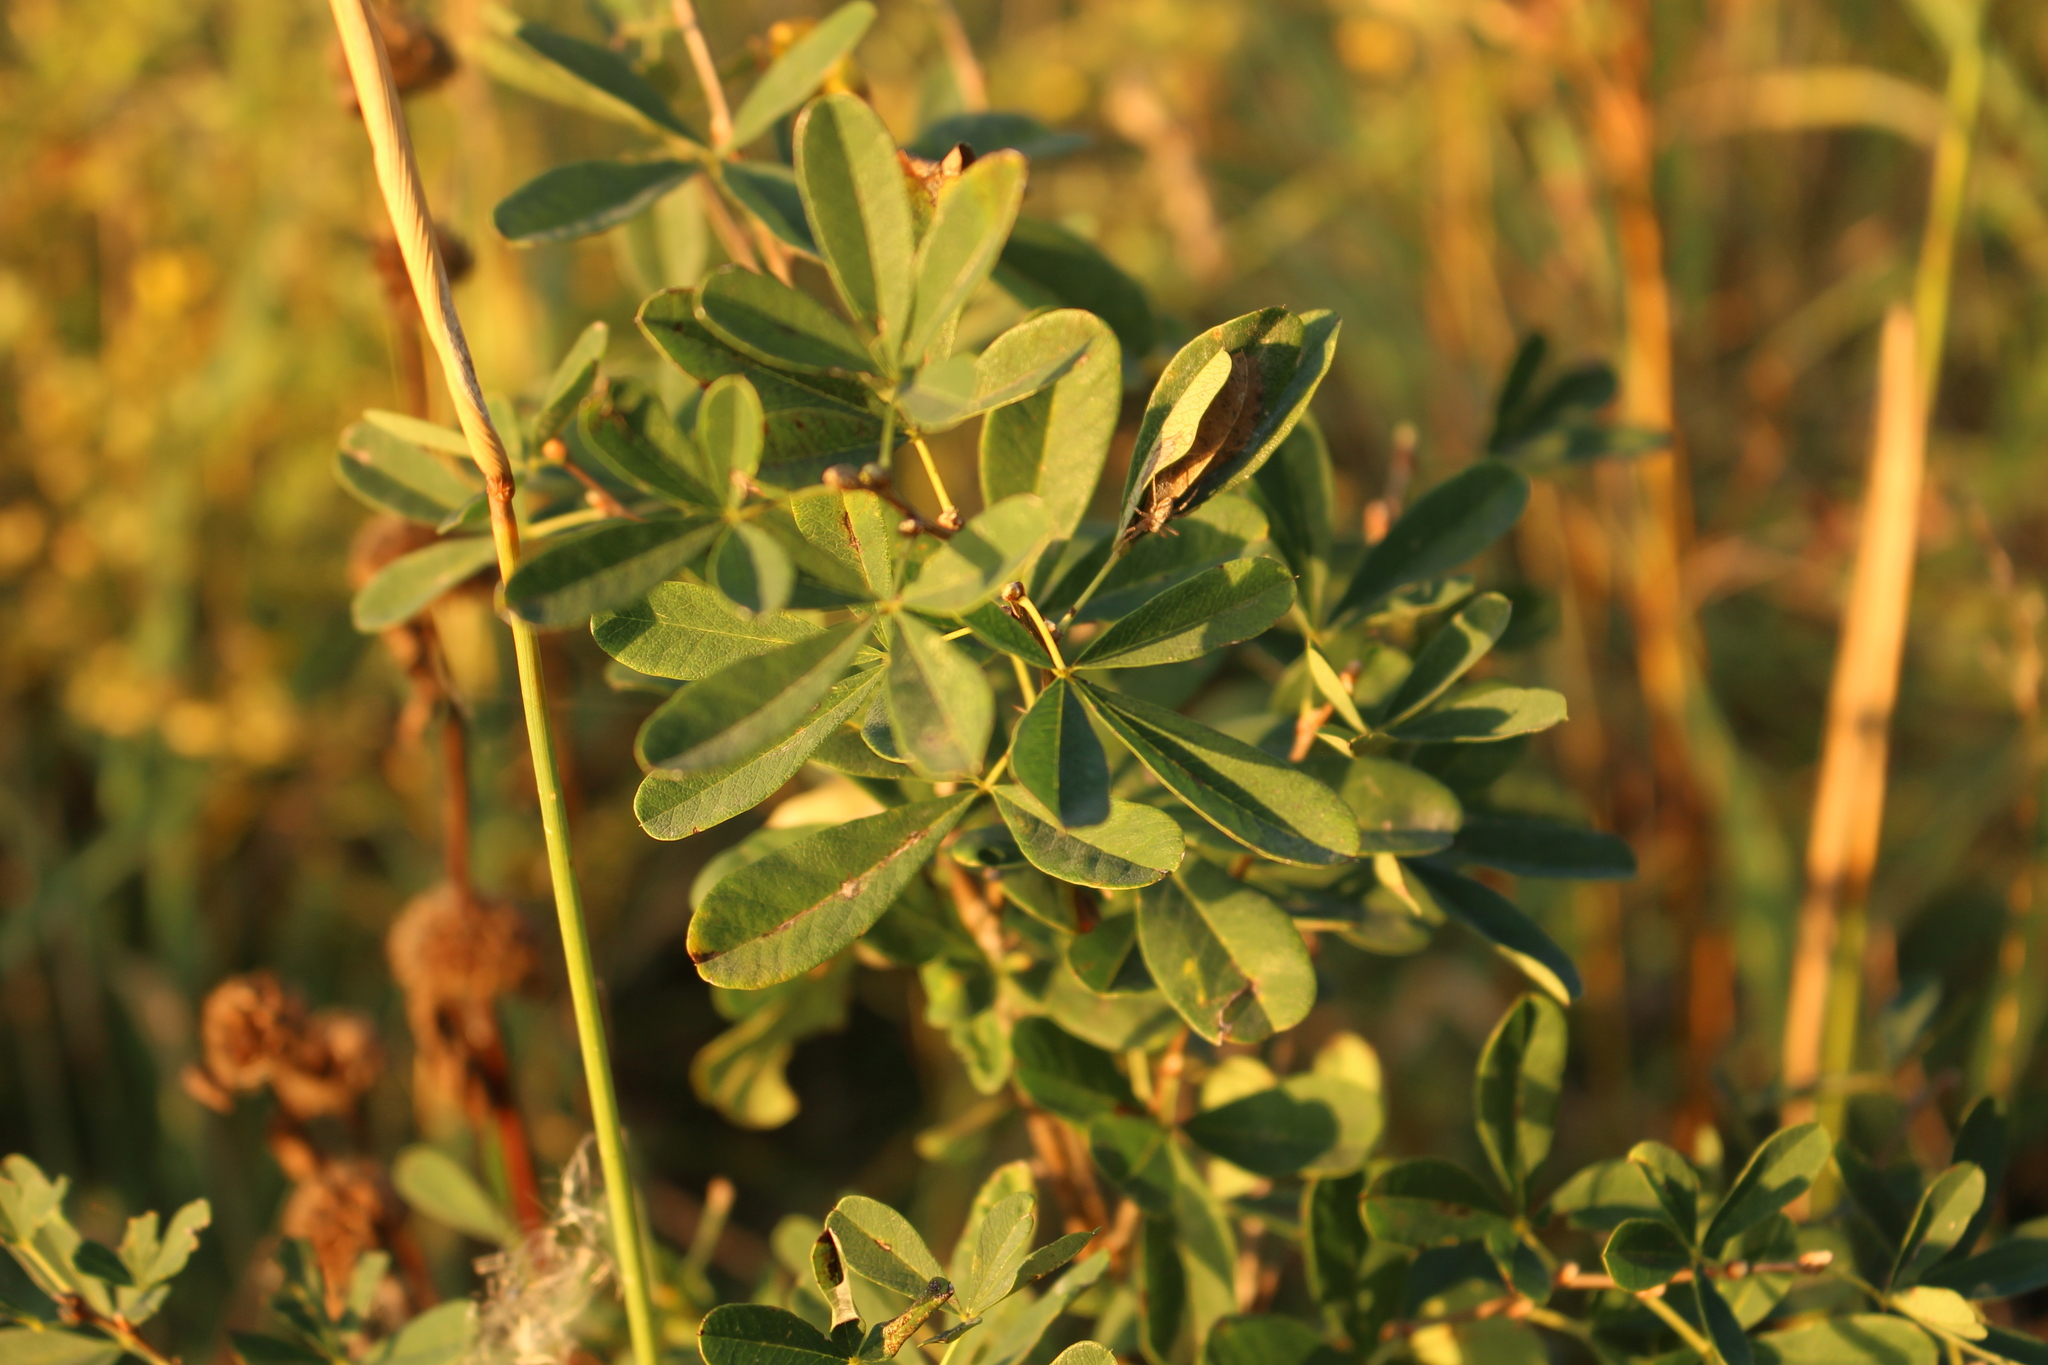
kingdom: Plantae
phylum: Tracheophyta
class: Magnoliopsida
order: Fabales
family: Fabaceae
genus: Caragana
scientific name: Caragana frutex
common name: Russian peashrub
